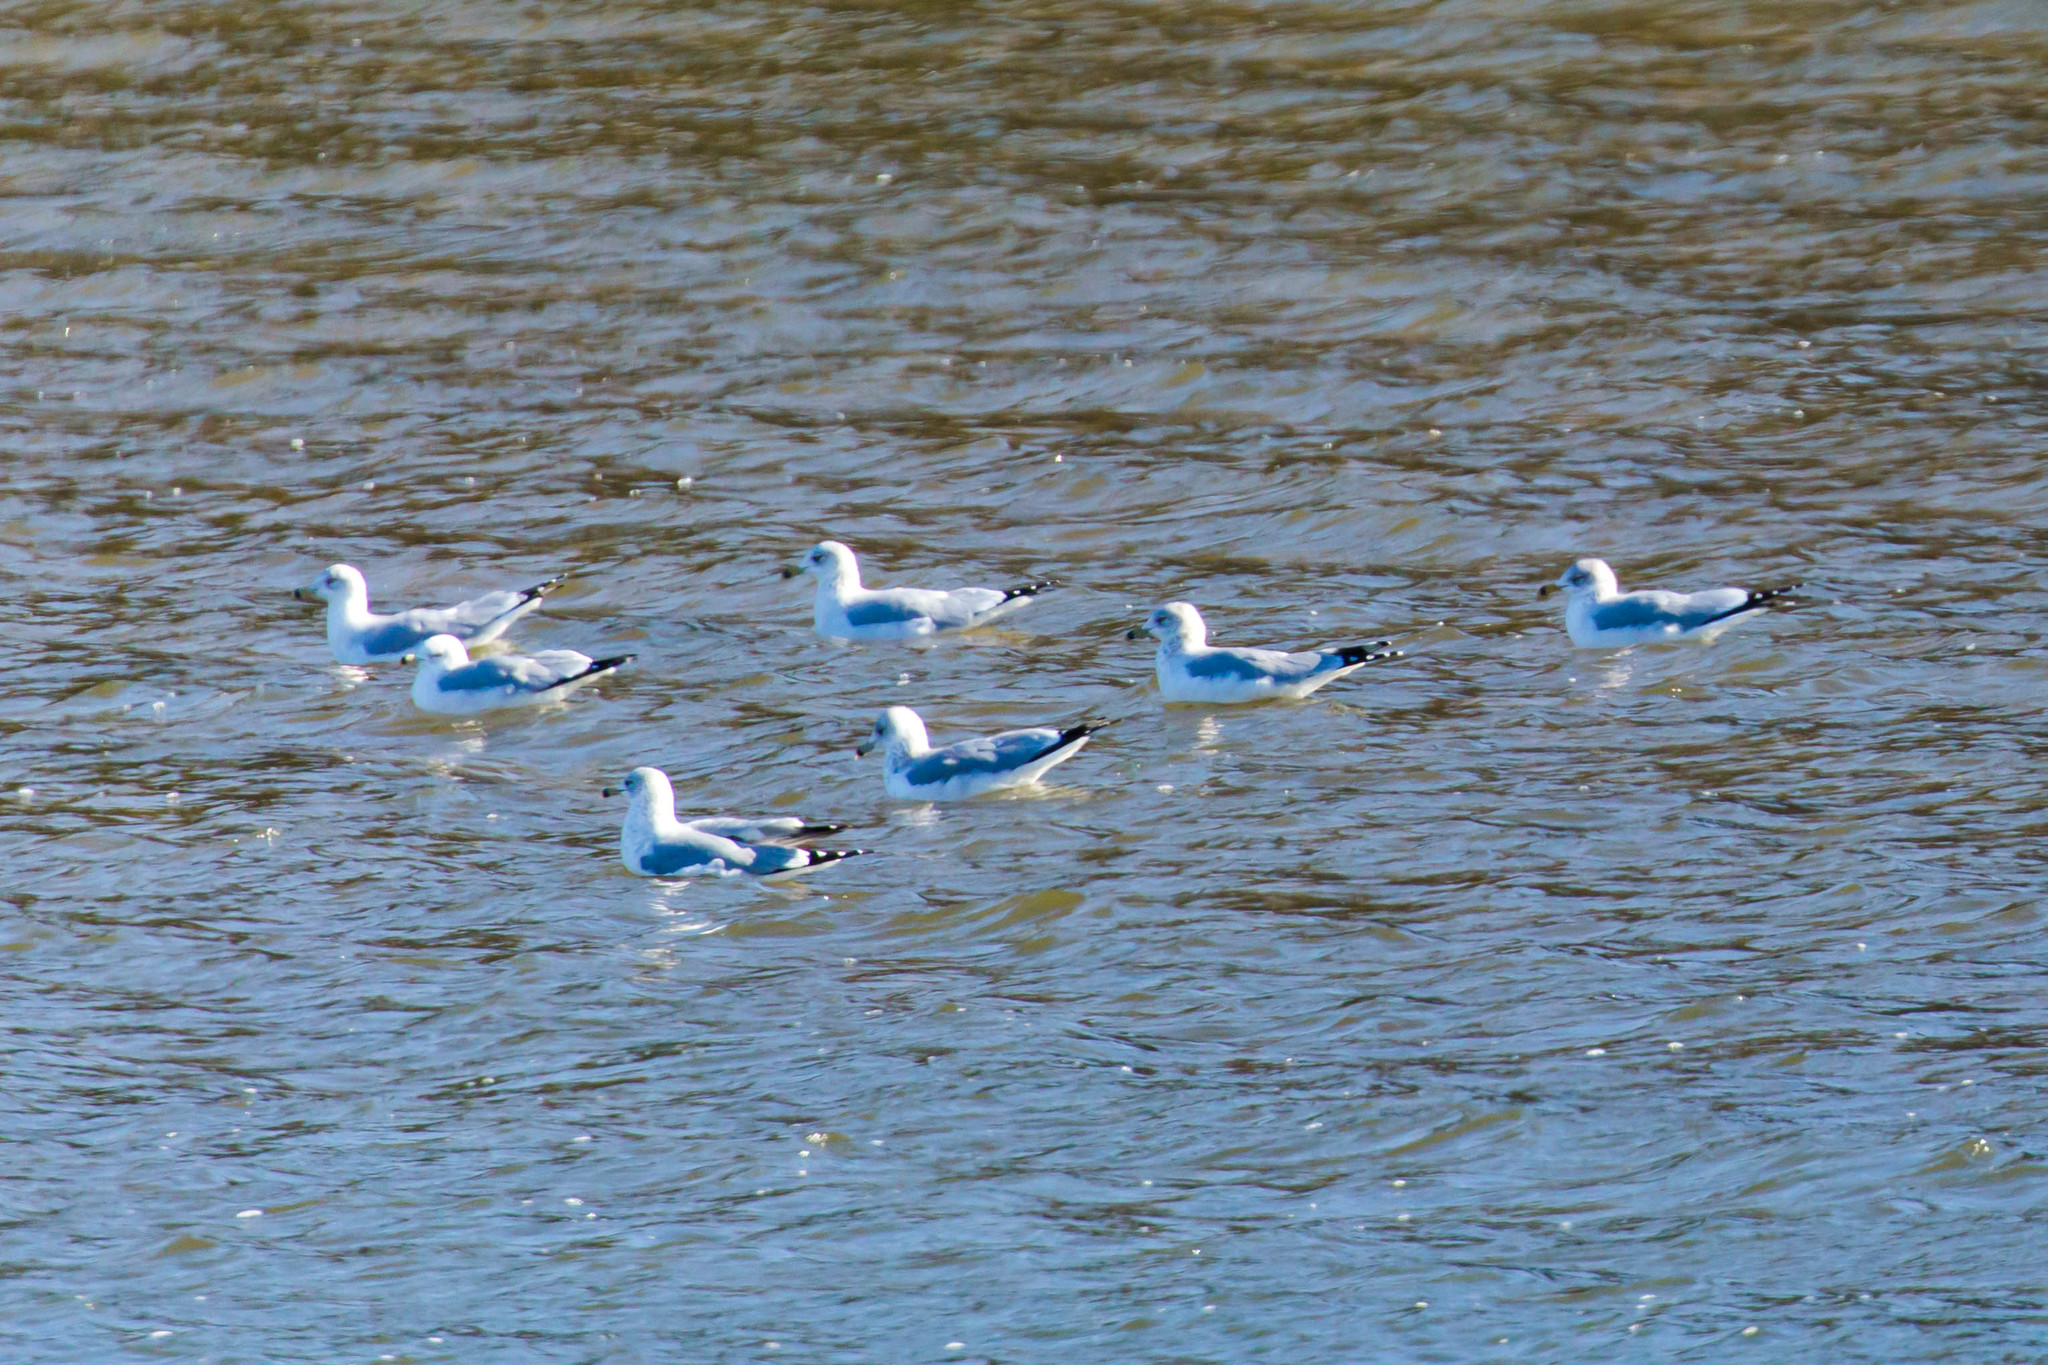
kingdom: Animalia
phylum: Chordata
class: Aves
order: Charadriiformes
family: Laridae
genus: Larus
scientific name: Larus delawarensis
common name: Ring-billed gull
